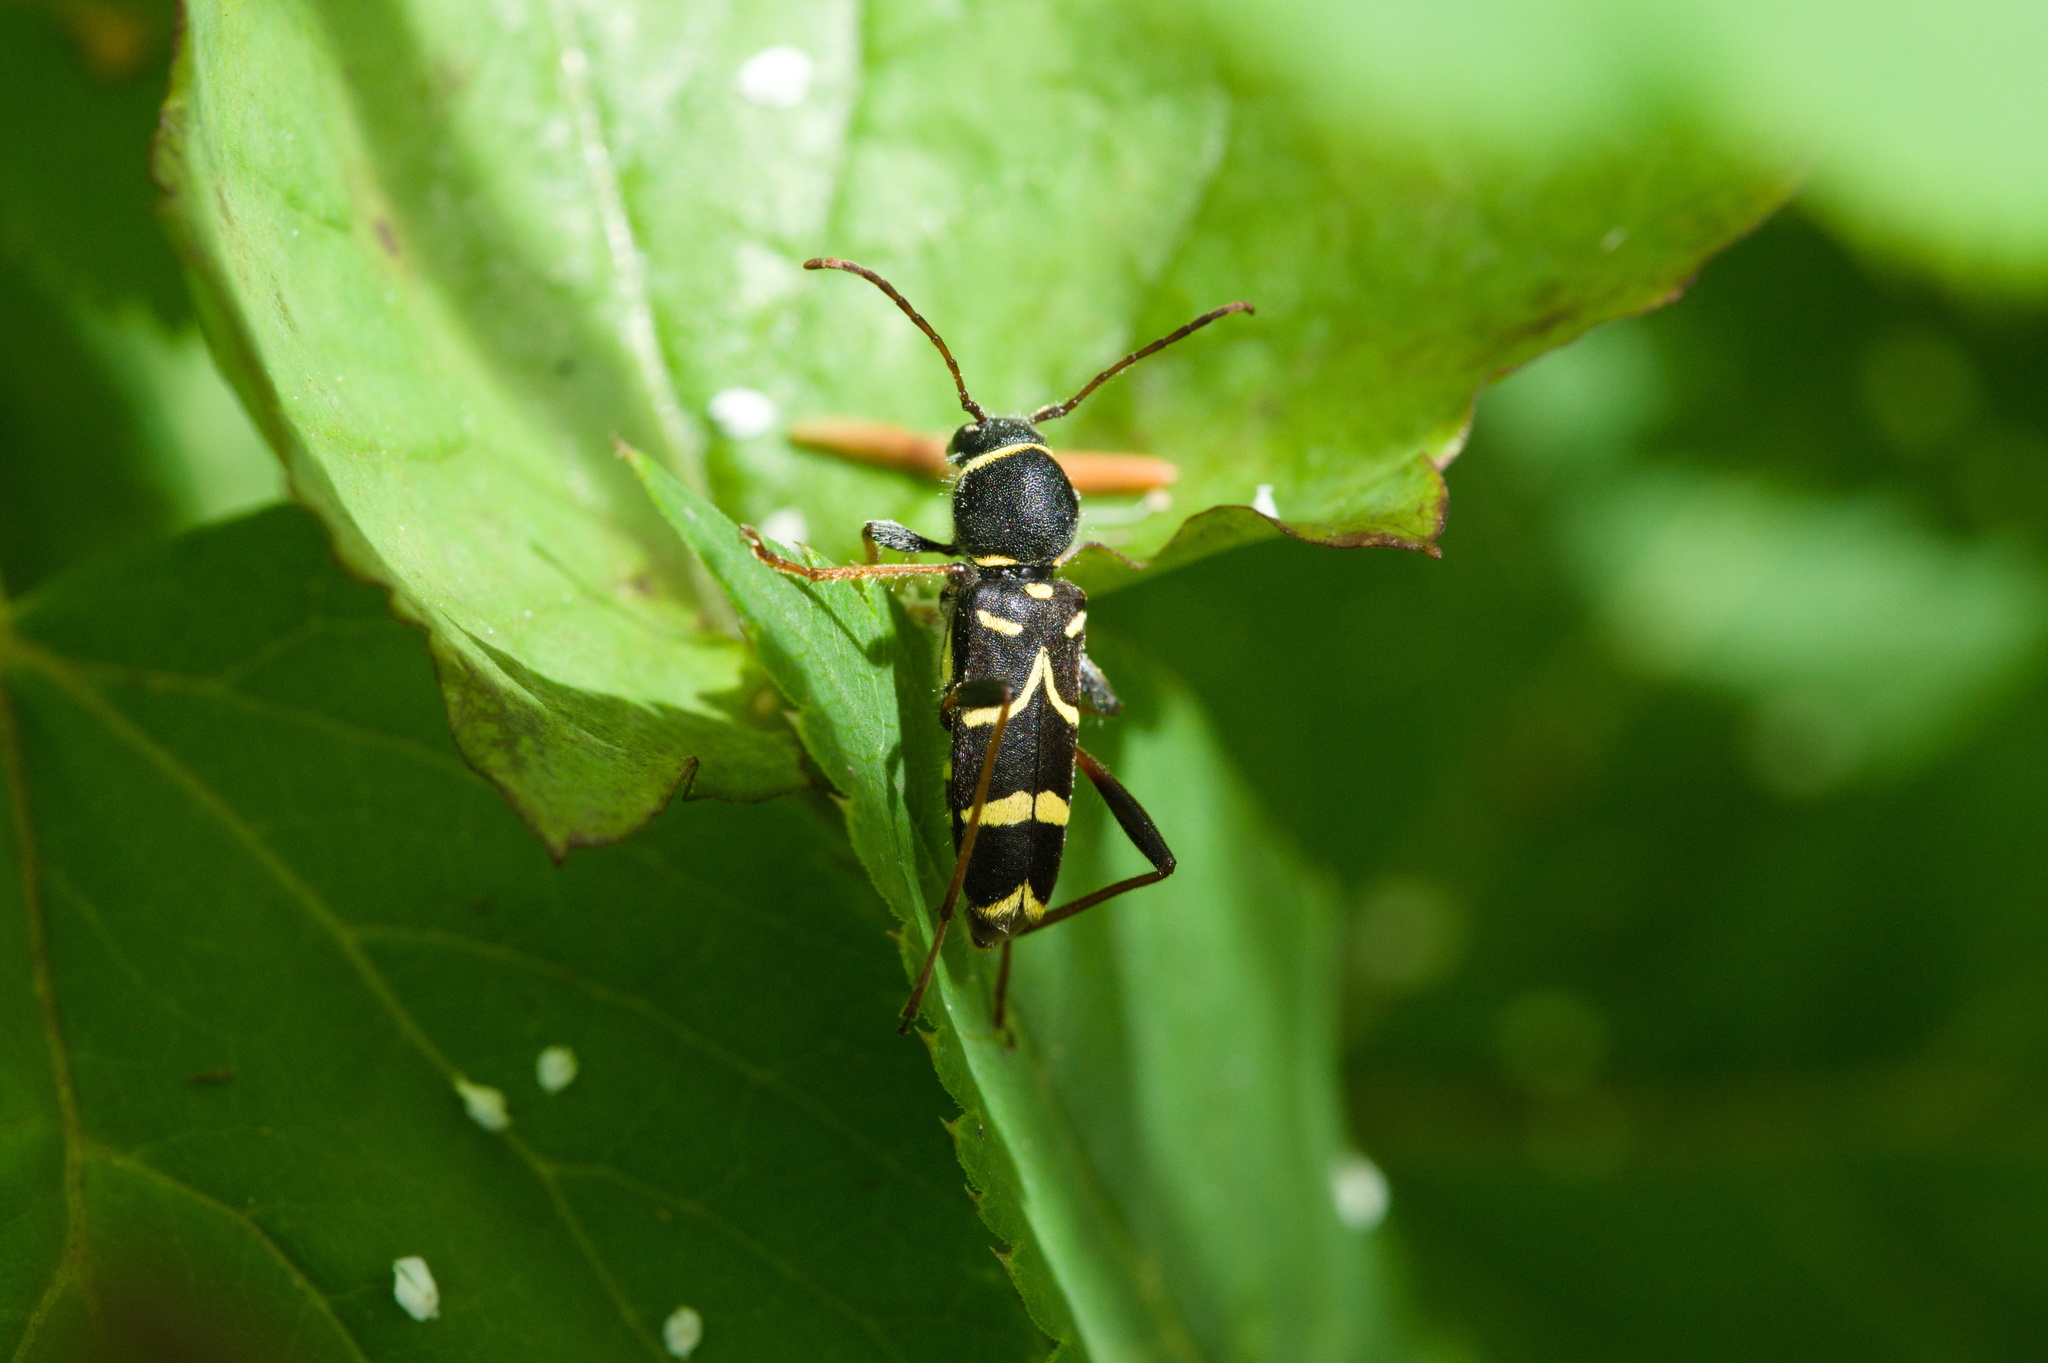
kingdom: Animalia
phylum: Arthropoda
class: Insecta
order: Coleoptera
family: Cerambycidae
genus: Clytus
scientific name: Clytus arietis
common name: Wasp beetle
